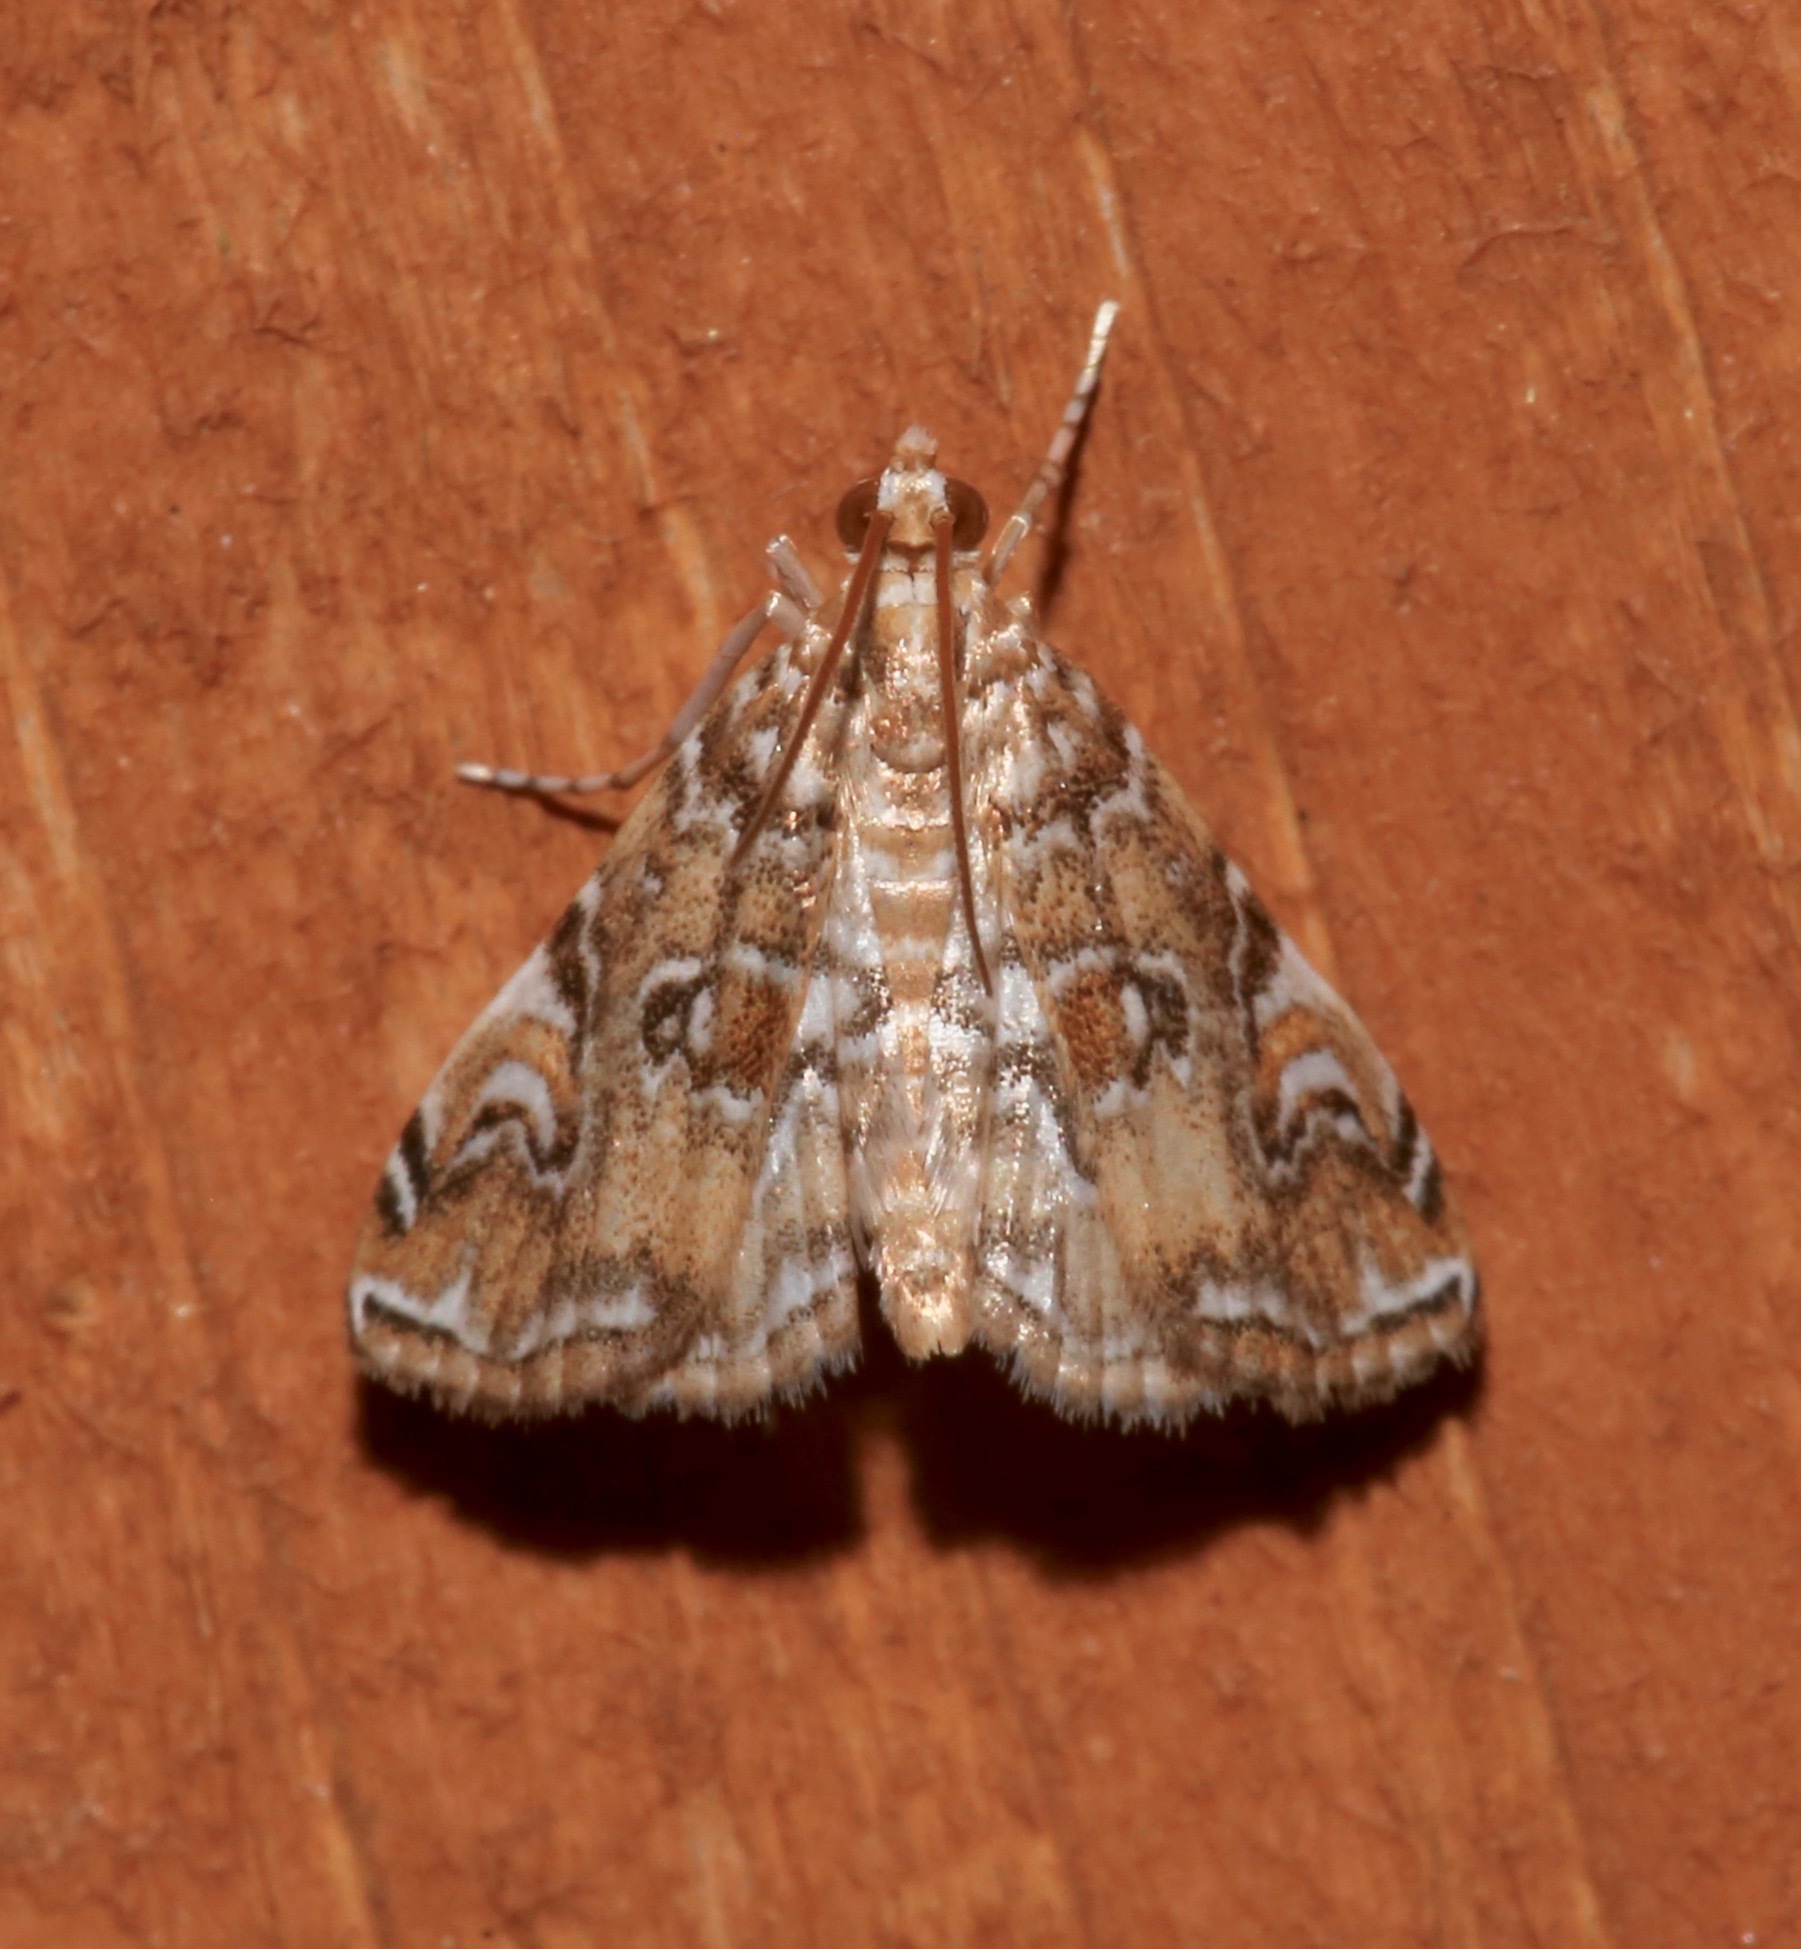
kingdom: Animalia
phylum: Arthropoda
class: Insecta
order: Lepidoptera
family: Crambidae
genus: Elophila
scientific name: Elophila gyralis
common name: Waterlily borer moth
